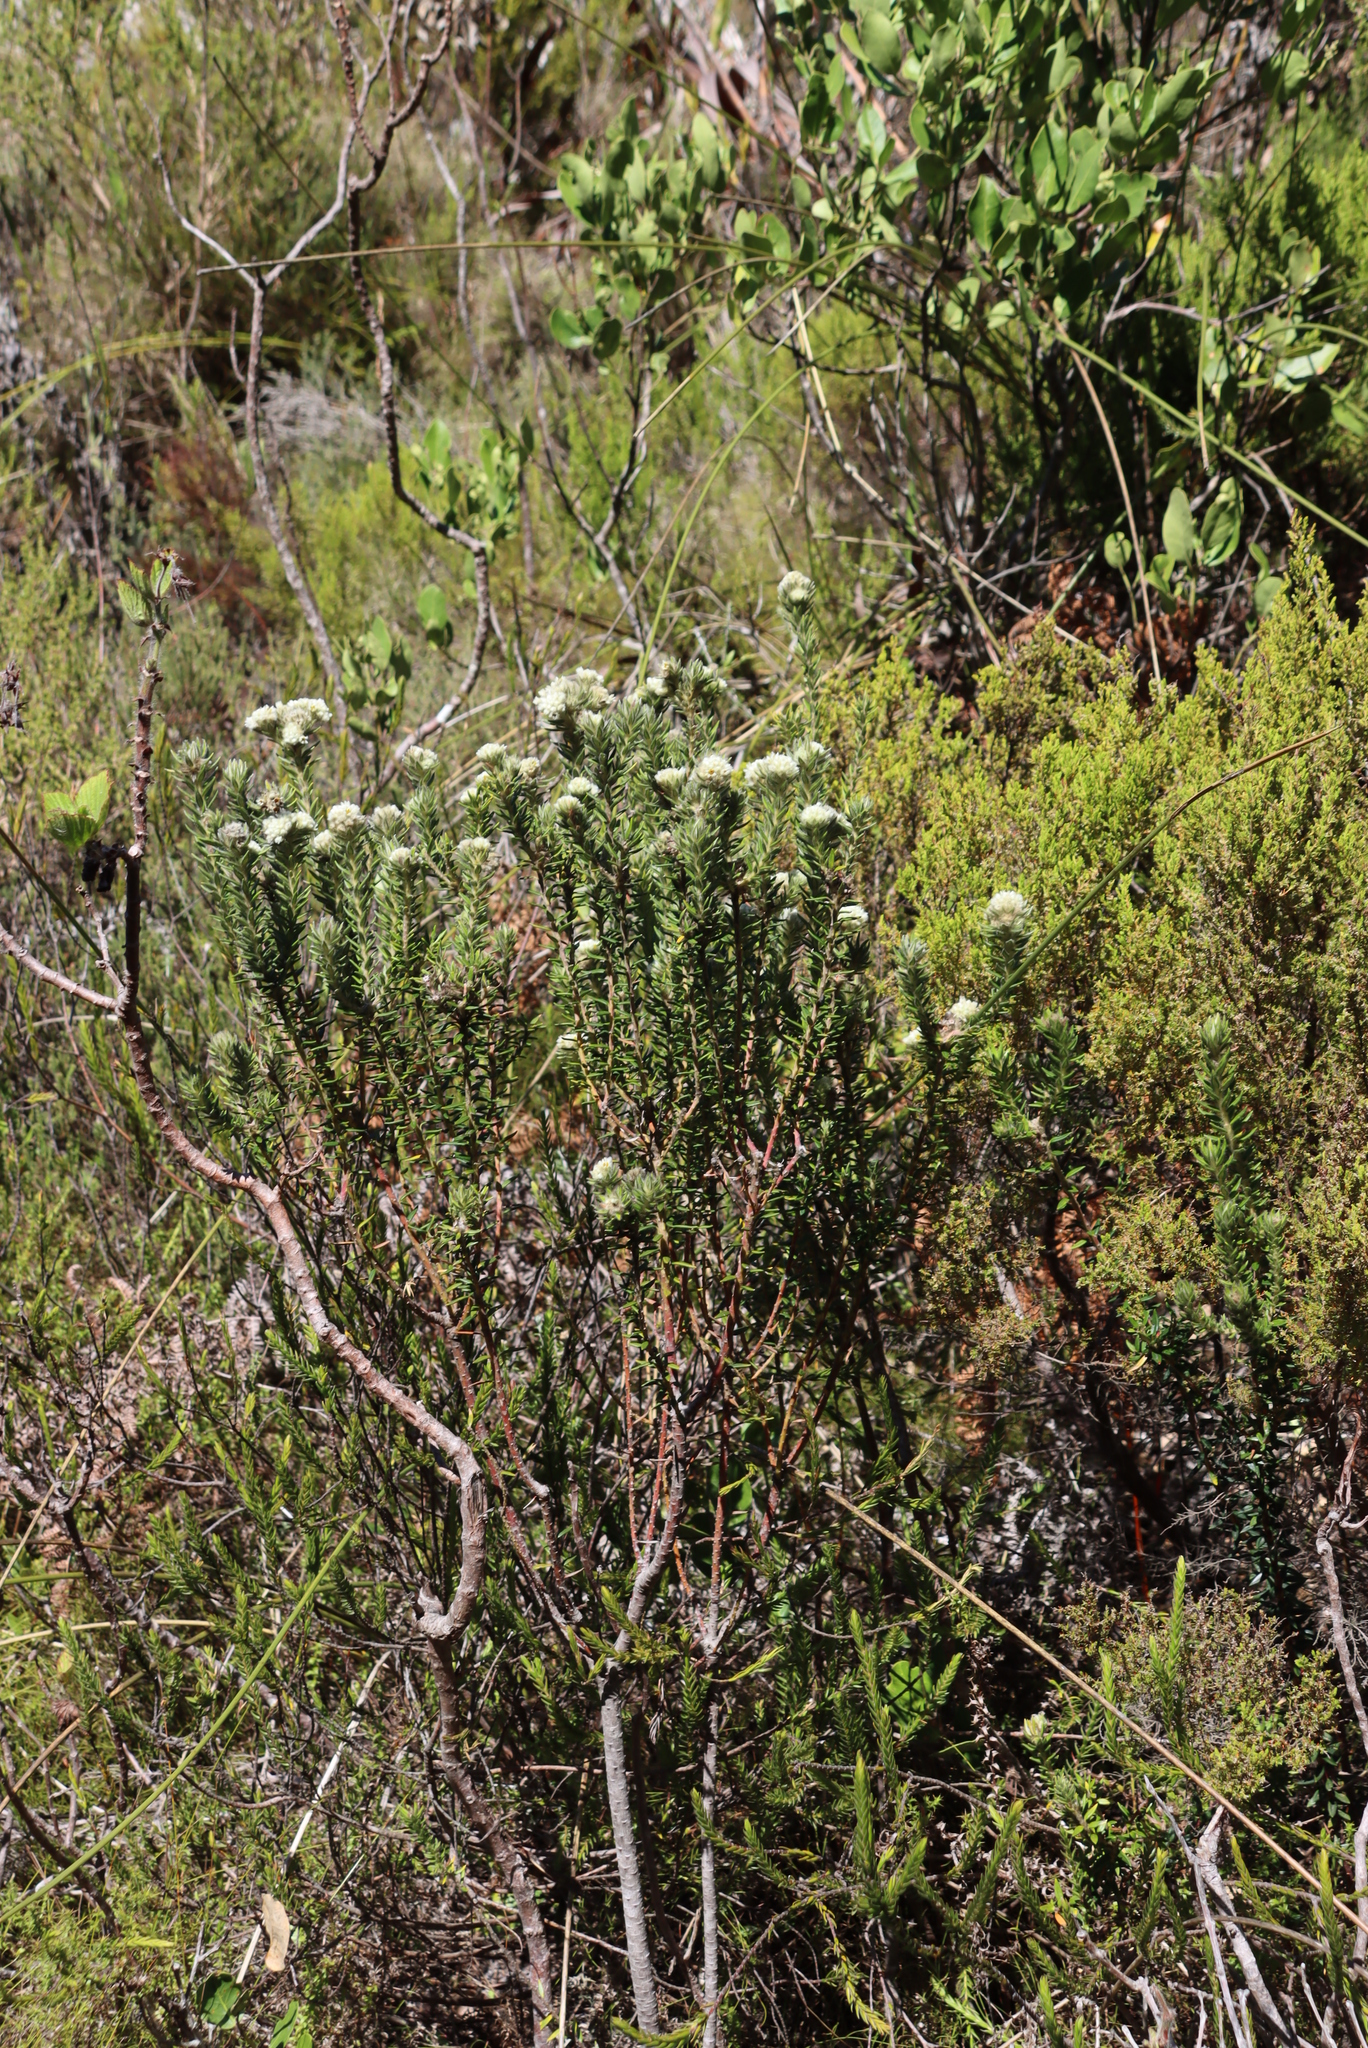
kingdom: Plantae
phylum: Tracheophyta
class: Magnoliopsida
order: Rosales
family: Rhamnaceae
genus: Phylica
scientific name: Phylica strigosa
